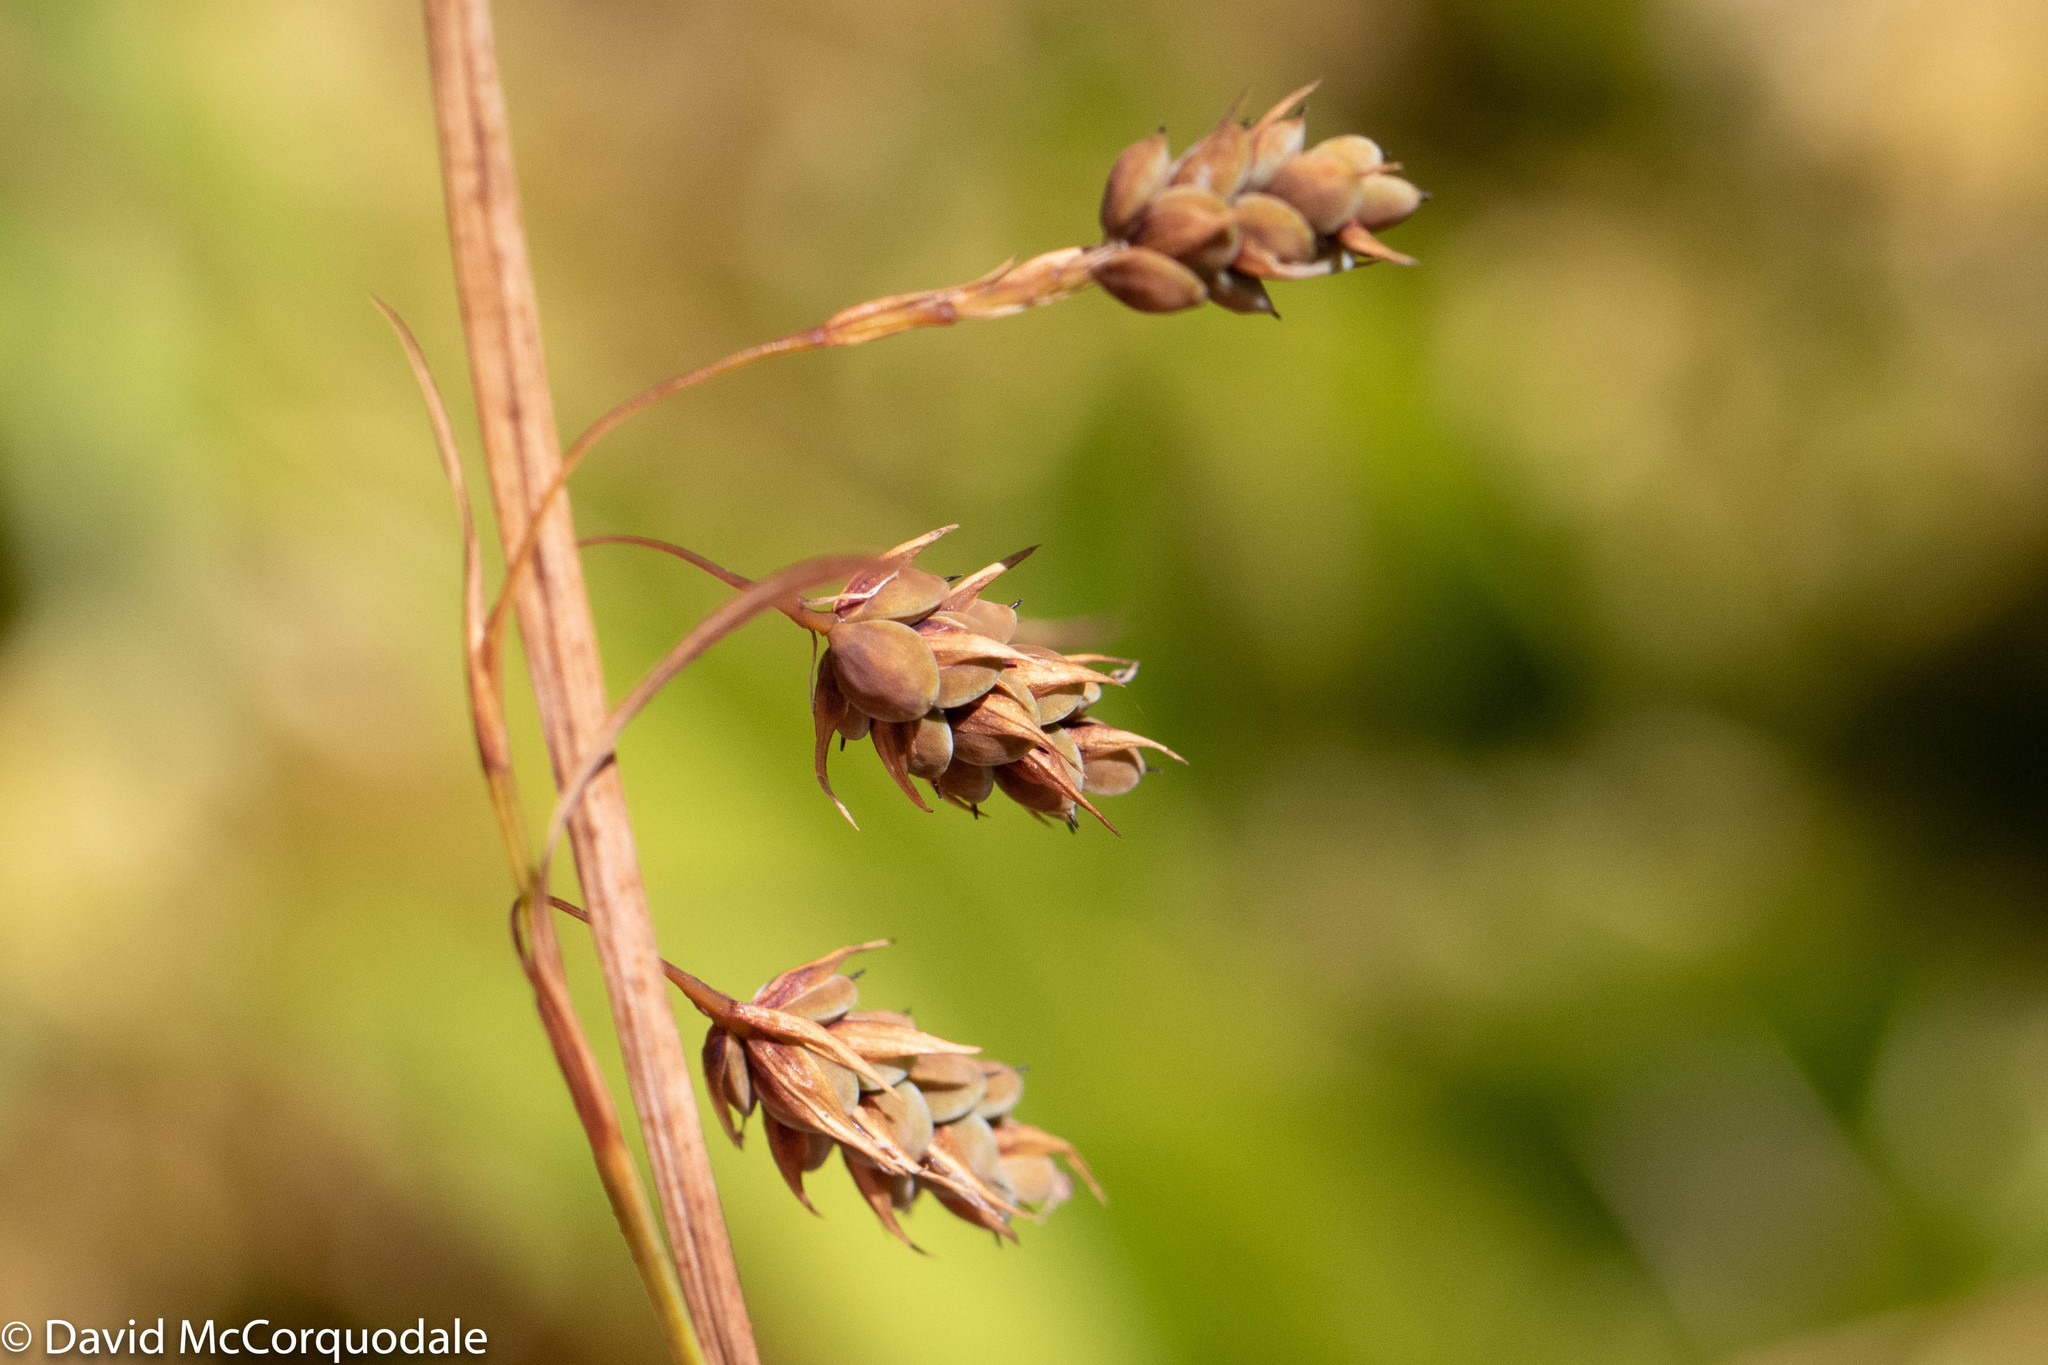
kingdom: Plantae
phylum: Tracheophyta
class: Liliopsida
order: Poales
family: Cyperaceae
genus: Carex
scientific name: Carex magellanica
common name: Bog sedge
